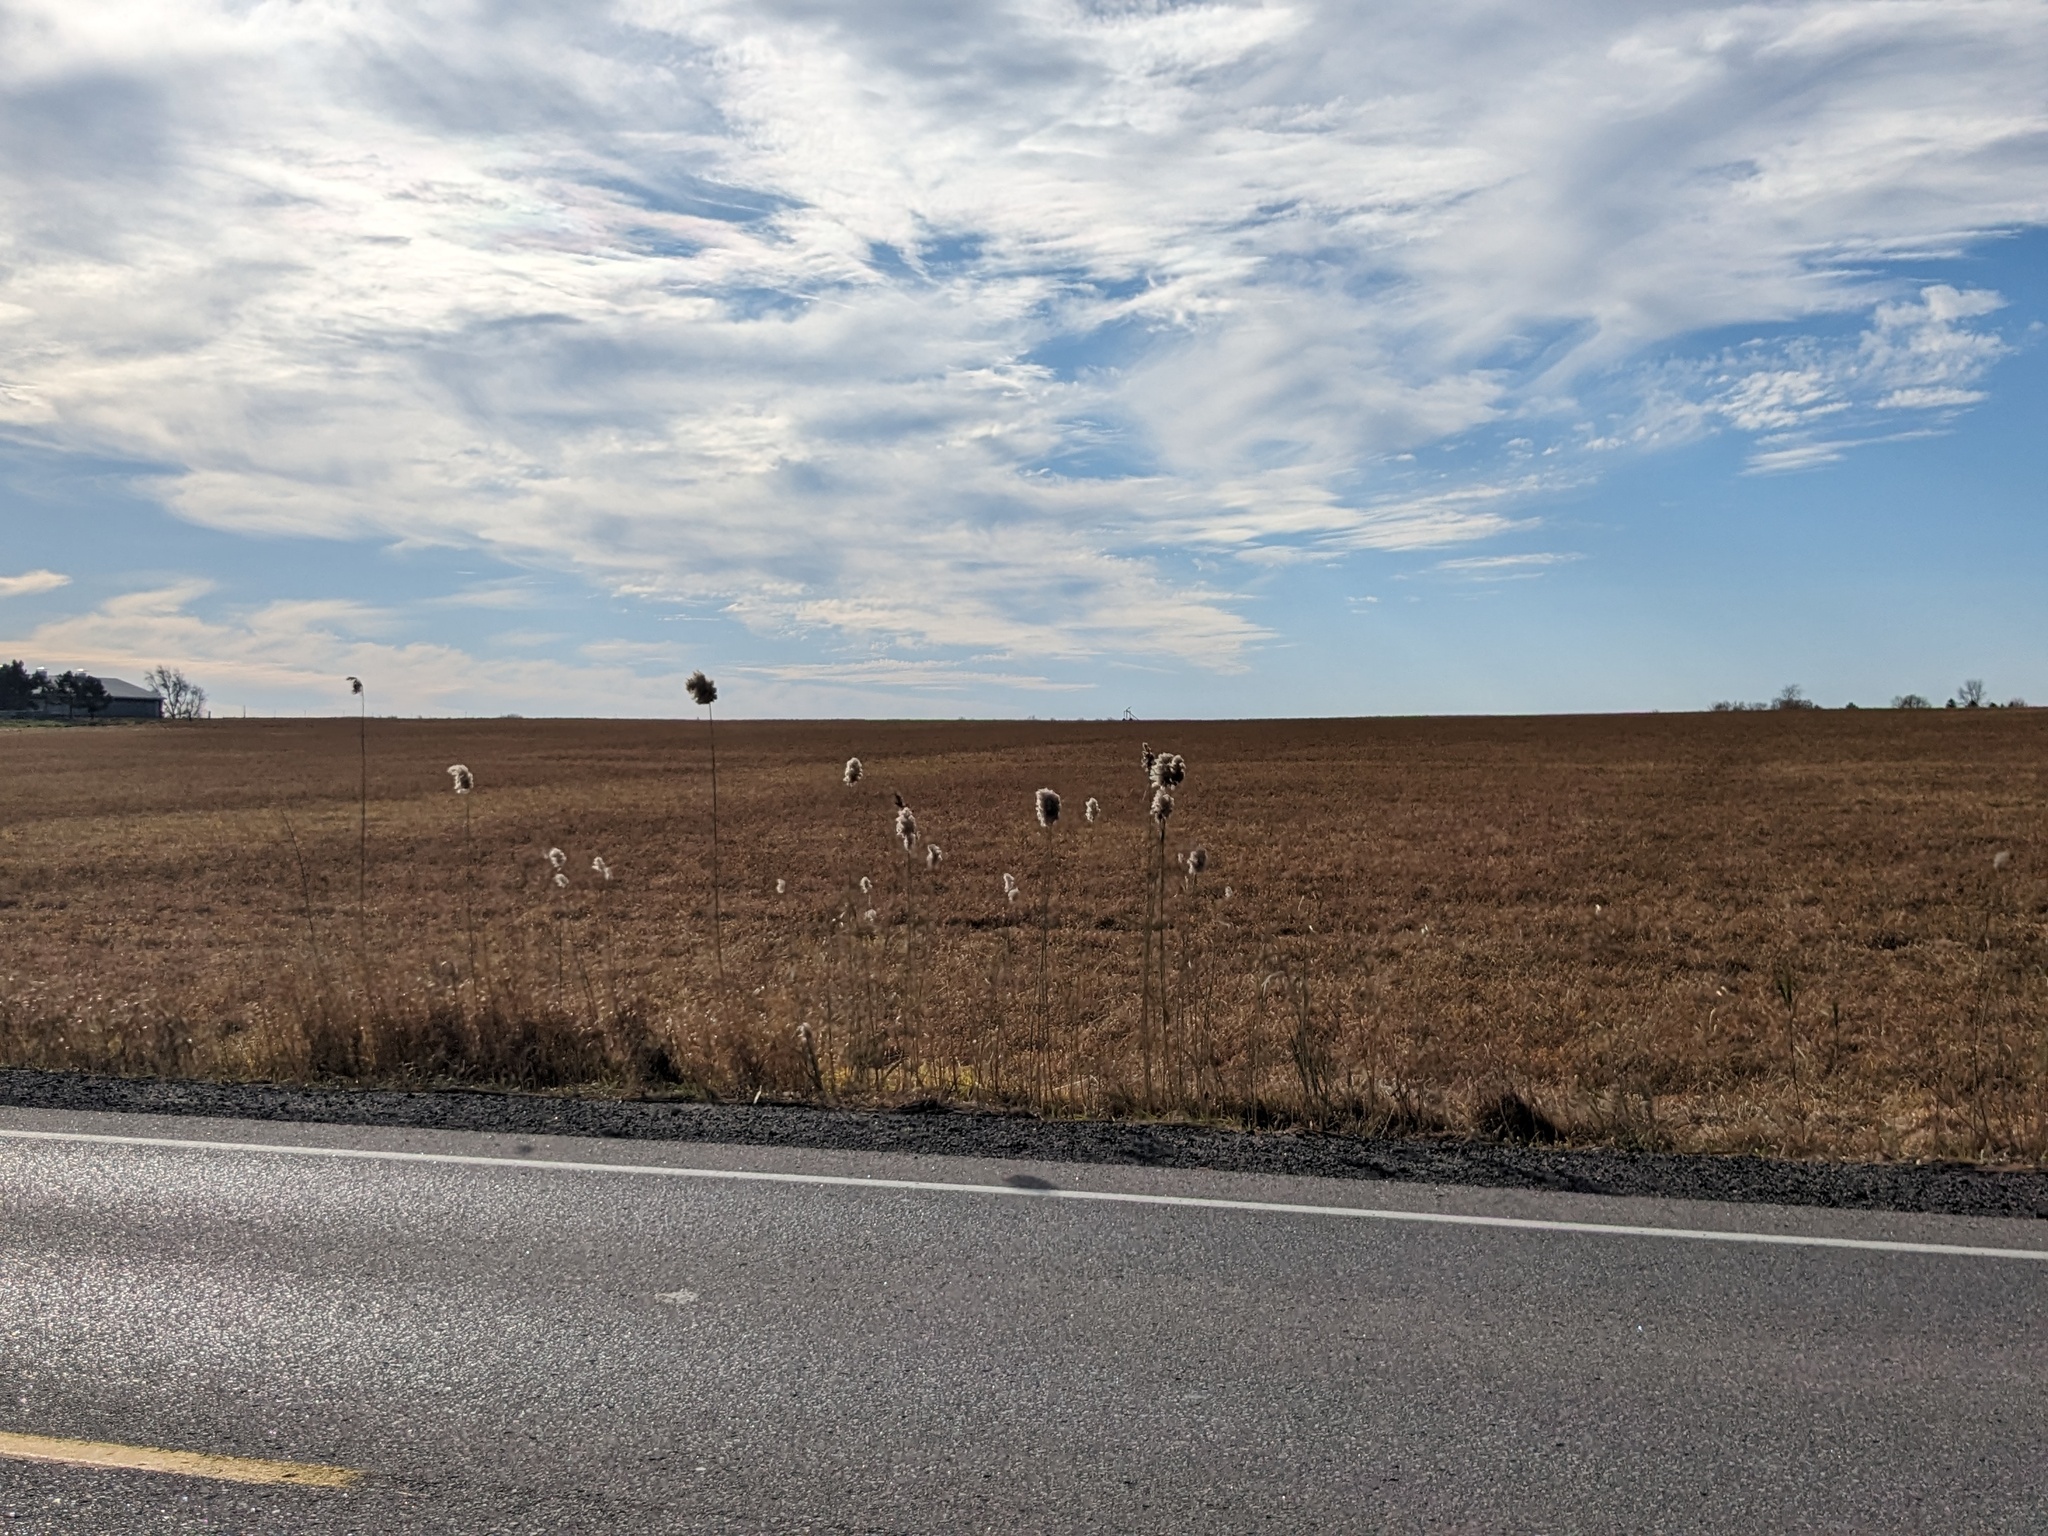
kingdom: Plantae
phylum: Tracheophyta
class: Liliopsida
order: Poales
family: Poaceae
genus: Phragmites
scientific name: Phragmites australis
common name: Common reed
